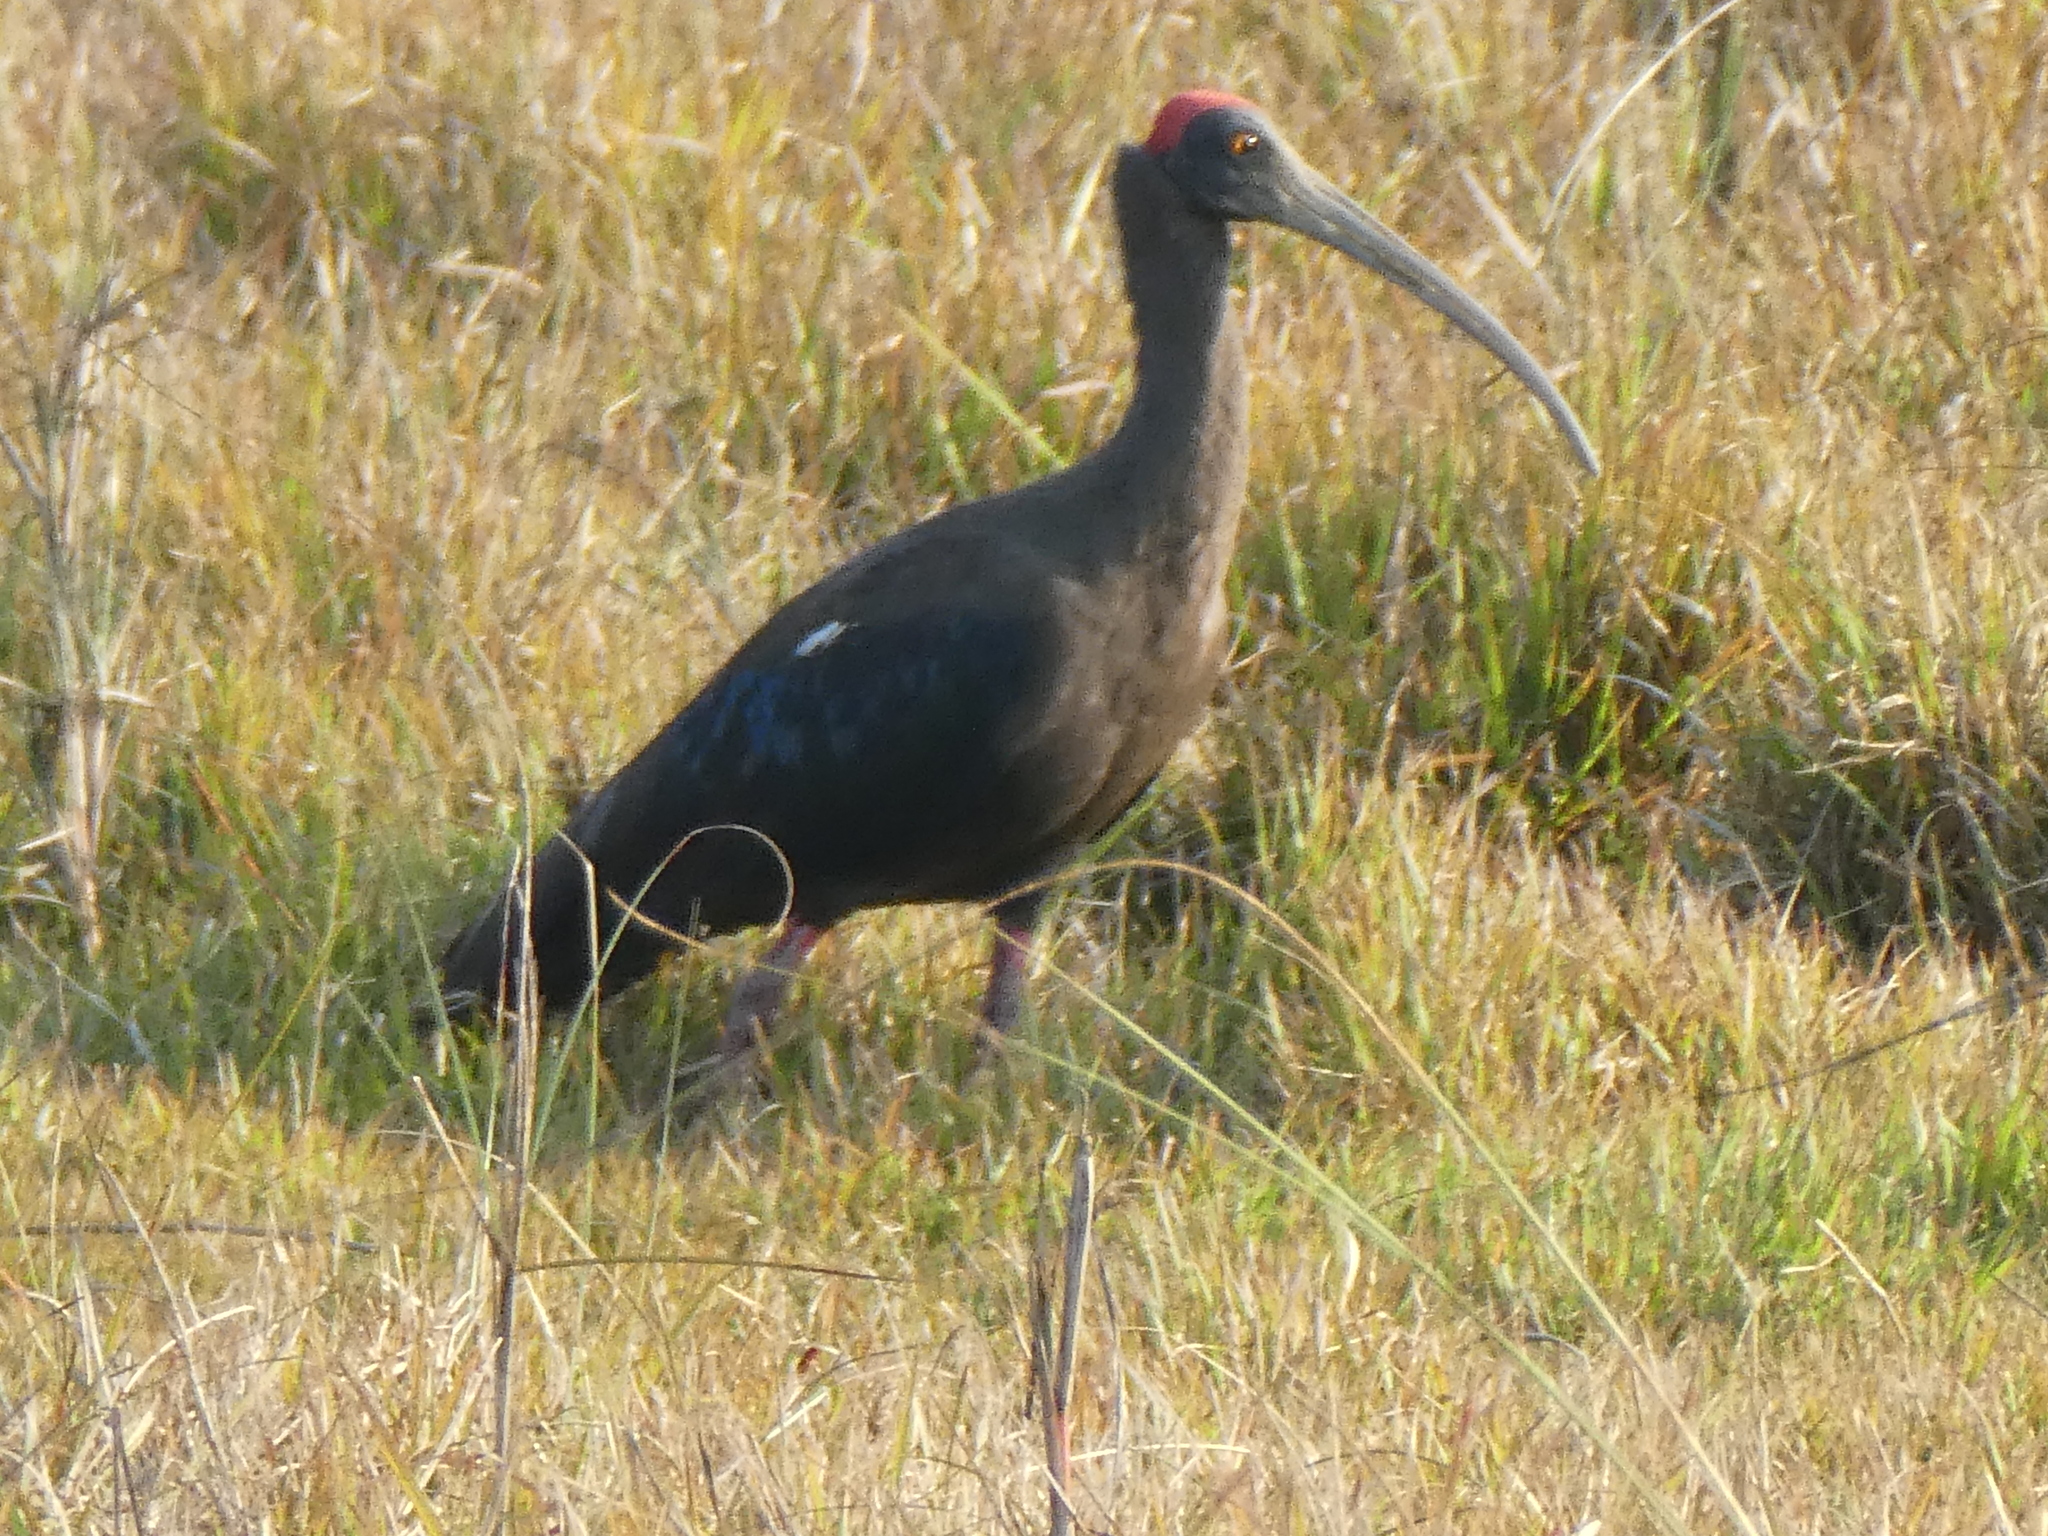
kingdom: Animalia
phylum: Chordata
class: Aves
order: Pelecaniformes
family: Threskiornithidae
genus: Pseudibis
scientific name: Pseudibis papillosa
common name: Red-naped ibis
